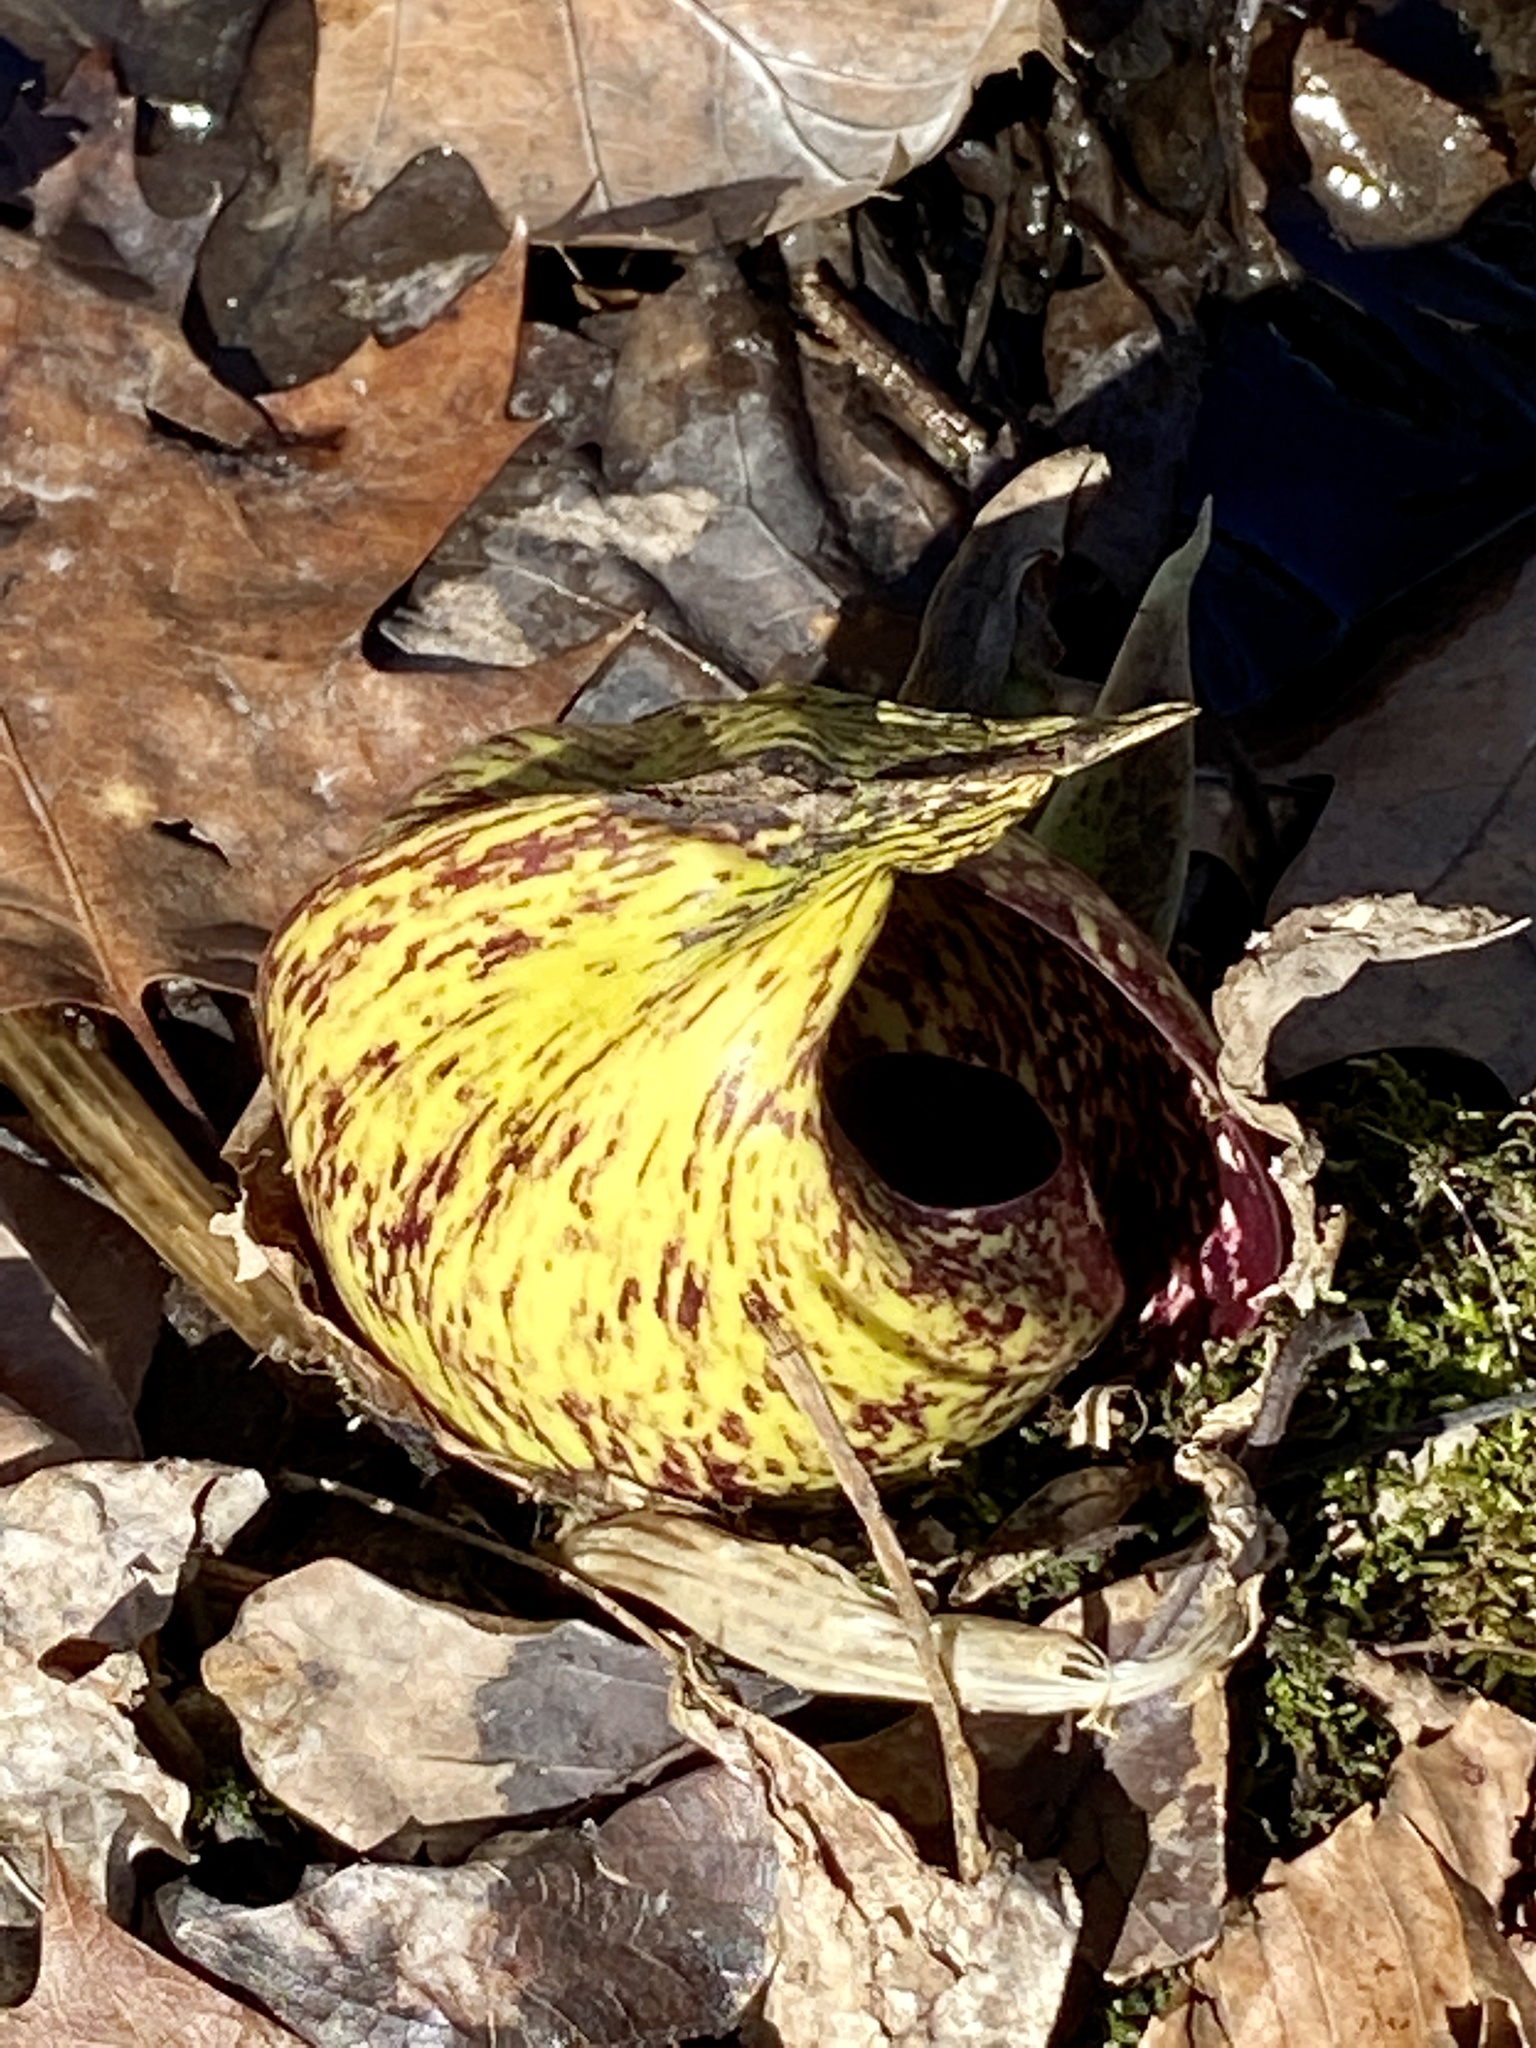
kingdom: Plantae
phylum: Tracheophyta
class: Liliopsida
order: Alismatales
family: Araceae
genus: Symplocarpus
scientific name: Symplocarpus foetidus
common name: Eastern skunk cabbage
